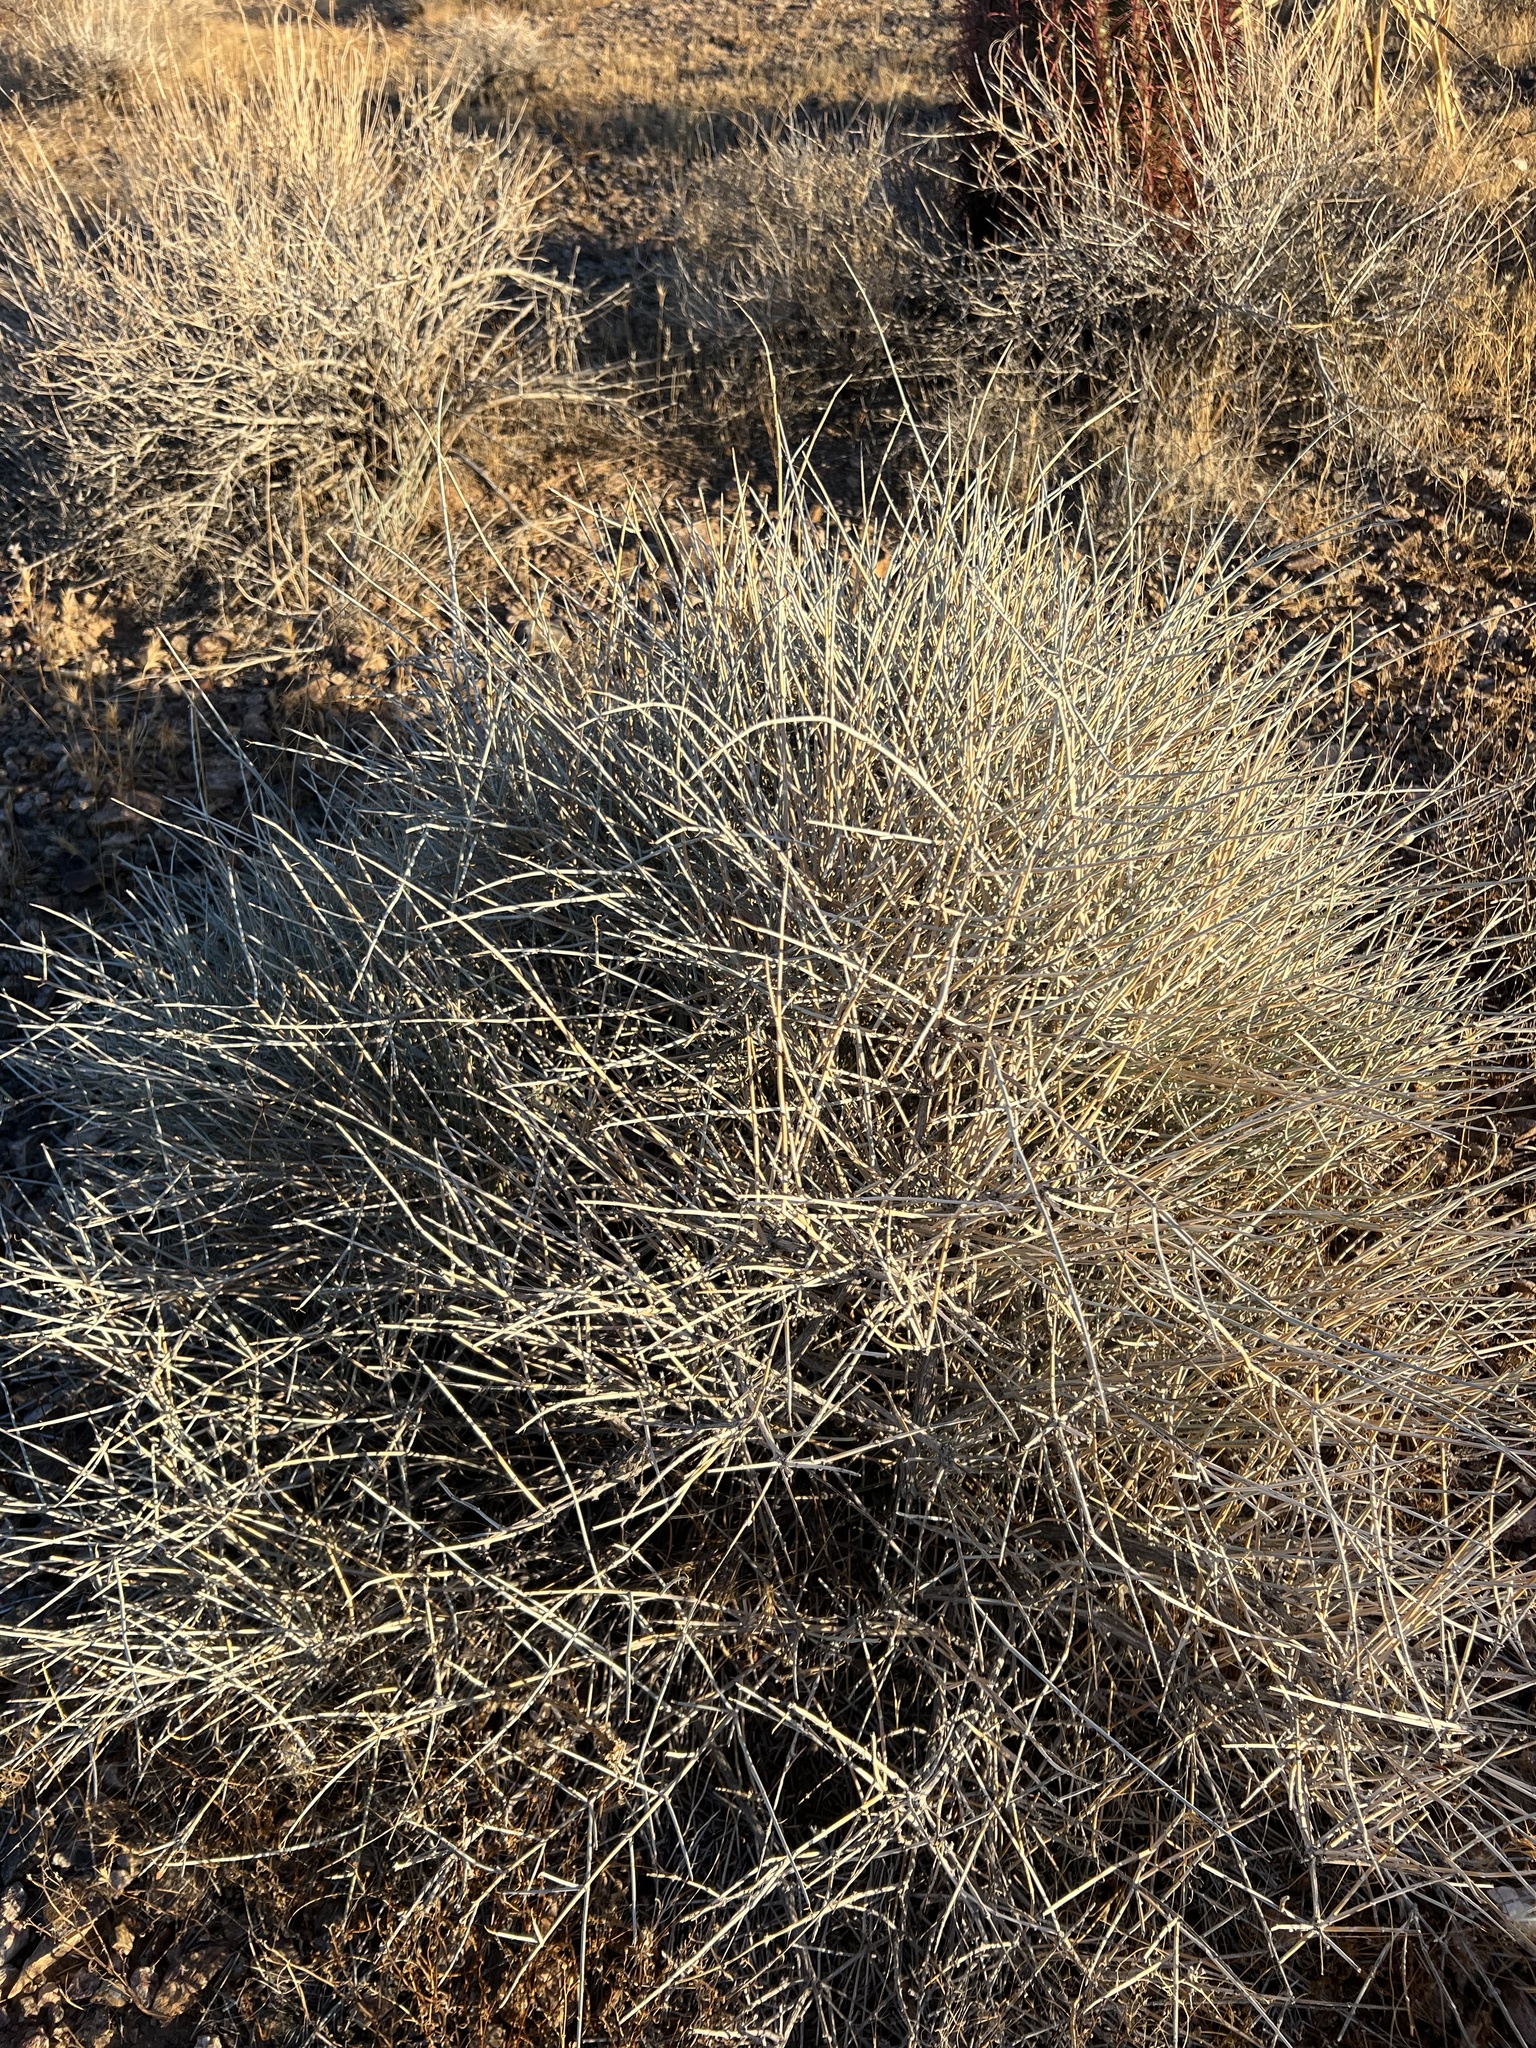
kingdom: Plantae
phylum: Tracheophyta
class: Gnetopsida
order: Ephedrales
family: Ephedraceae
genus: Ephedra
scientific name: Ephedra nevadensis
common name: Gray ephedra
